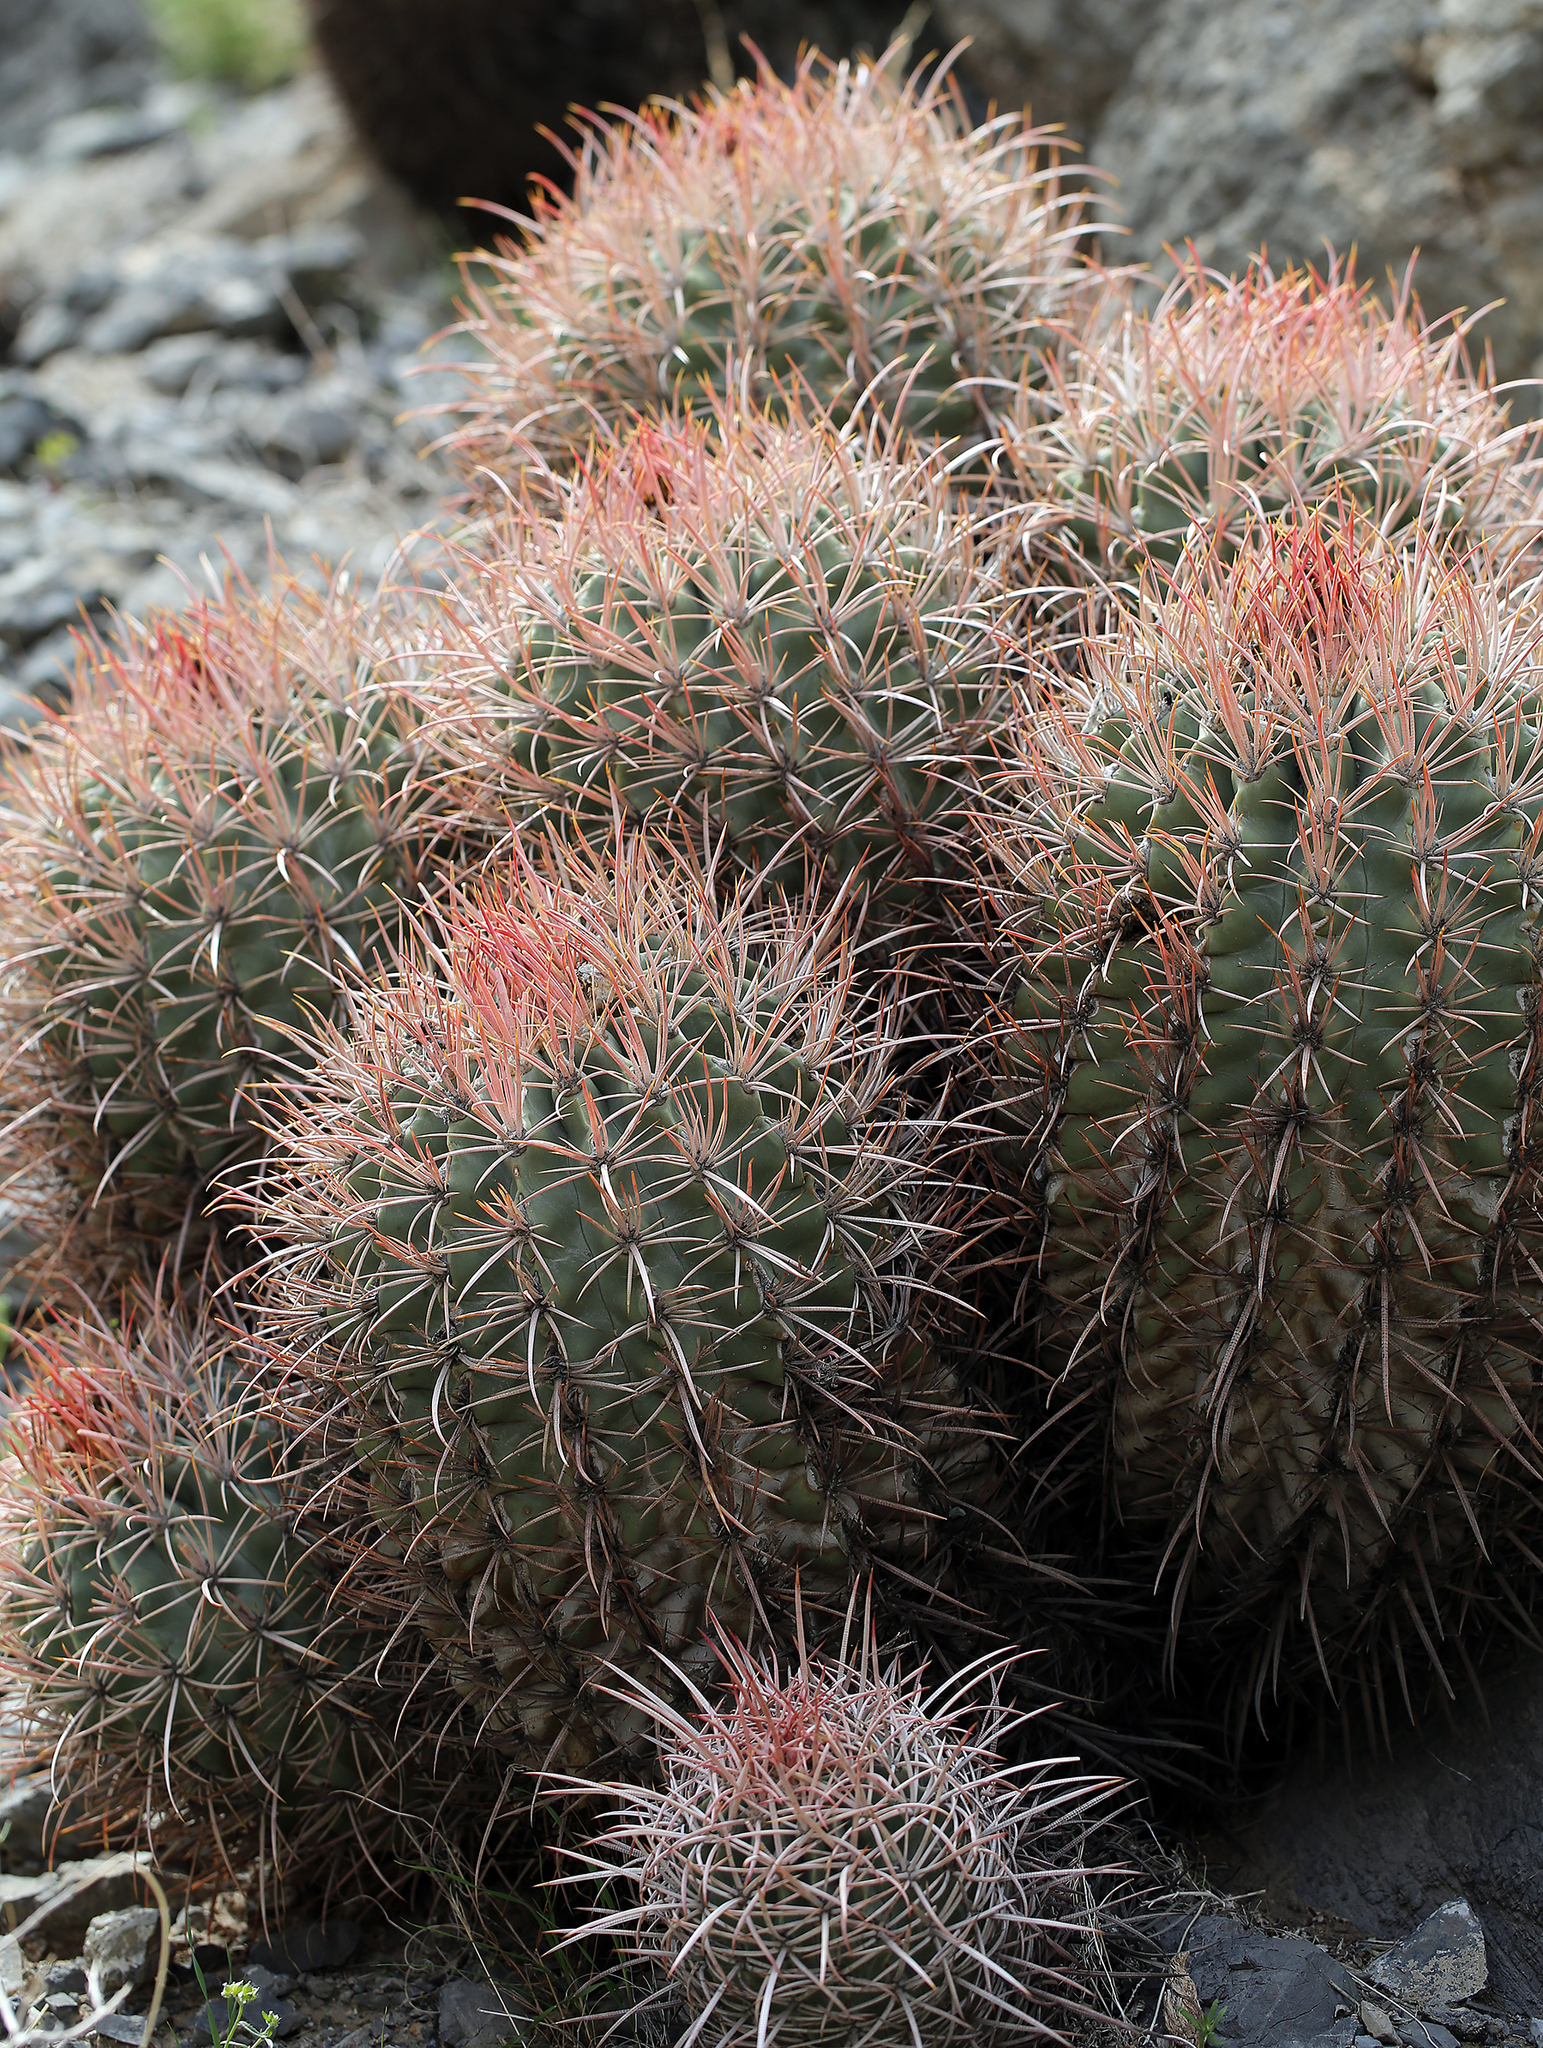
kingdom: Plantae
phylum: Tracheophyta
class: Magnoliopsida
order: Caryophyllales
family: Cactaceae
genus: Echinocactus
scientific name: Echinocactus polycephalus
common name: Cottontop cactus
